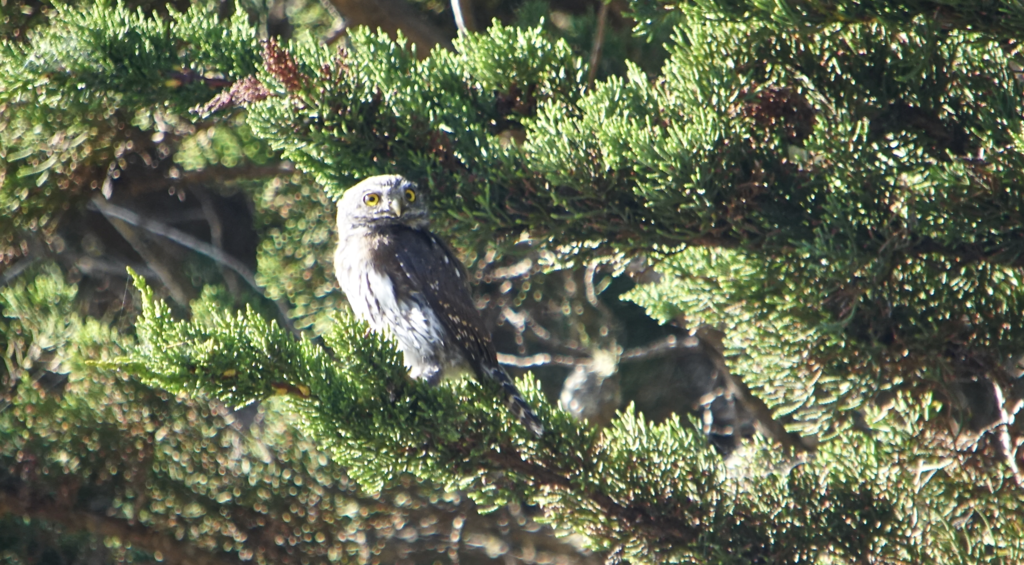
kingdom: Animalia
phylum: Chordata
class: Aves
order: Strigiformes
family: Strigidae
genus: Glaucidium
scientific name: Glaucidium gnoma
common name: Northern pygmy-owl
